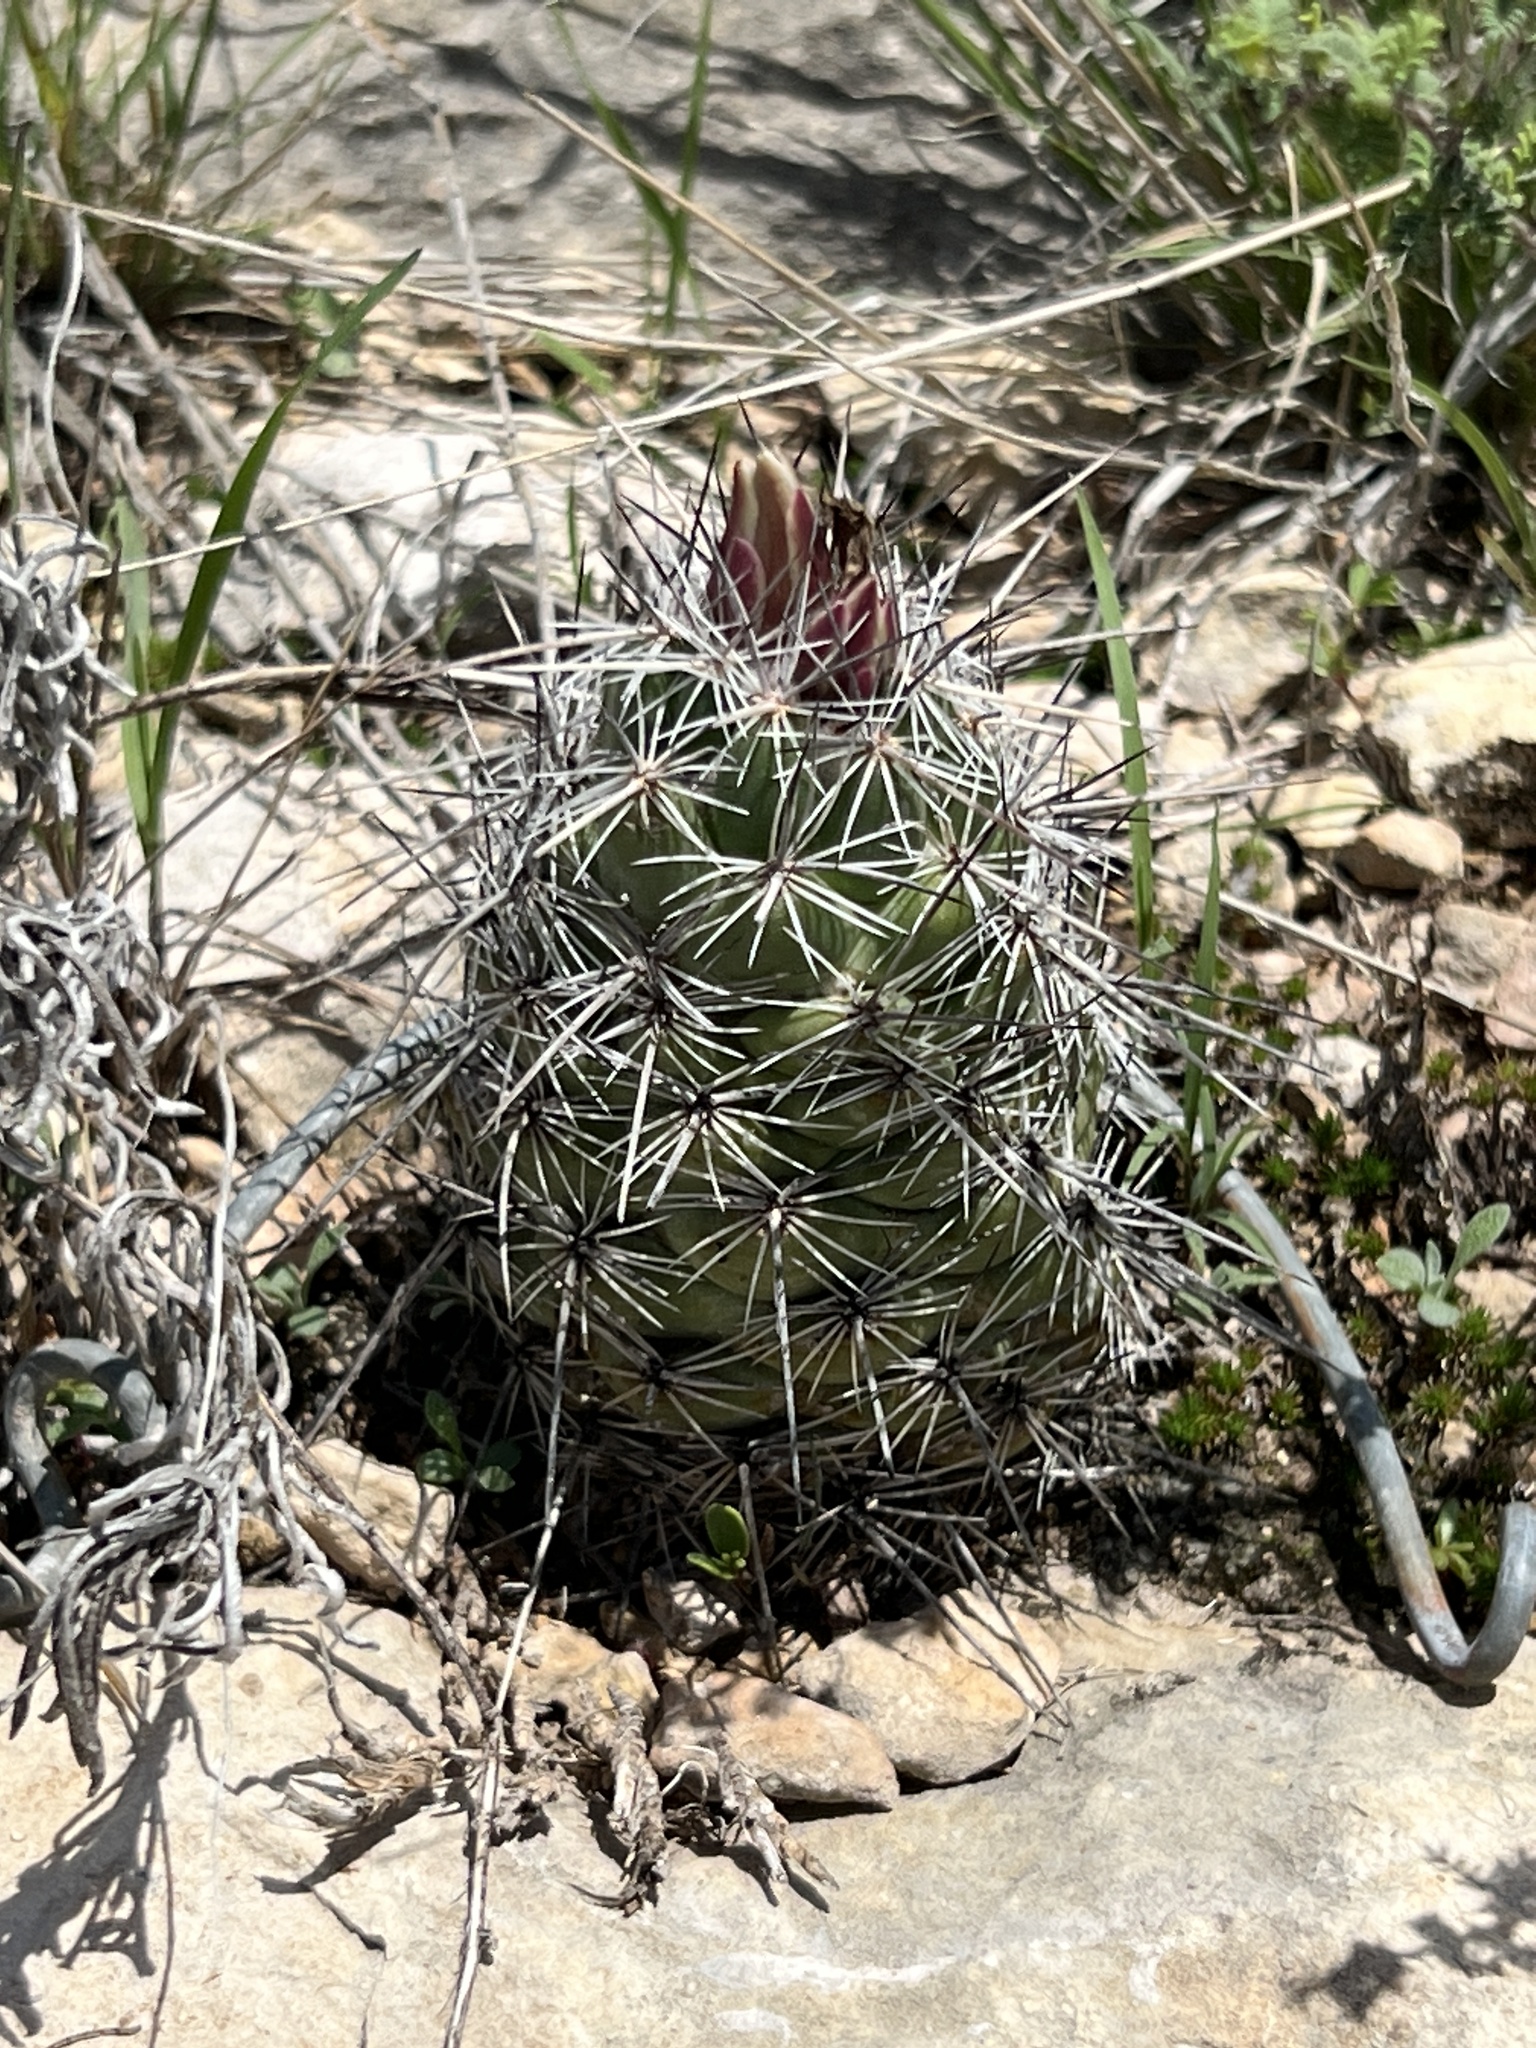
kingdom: Plantae
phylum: Tracheophyta
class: Magnoliopsida
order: Caryophyllales
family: Cactaceae
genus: Cochemiea
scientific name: Cochemiea conoidea
